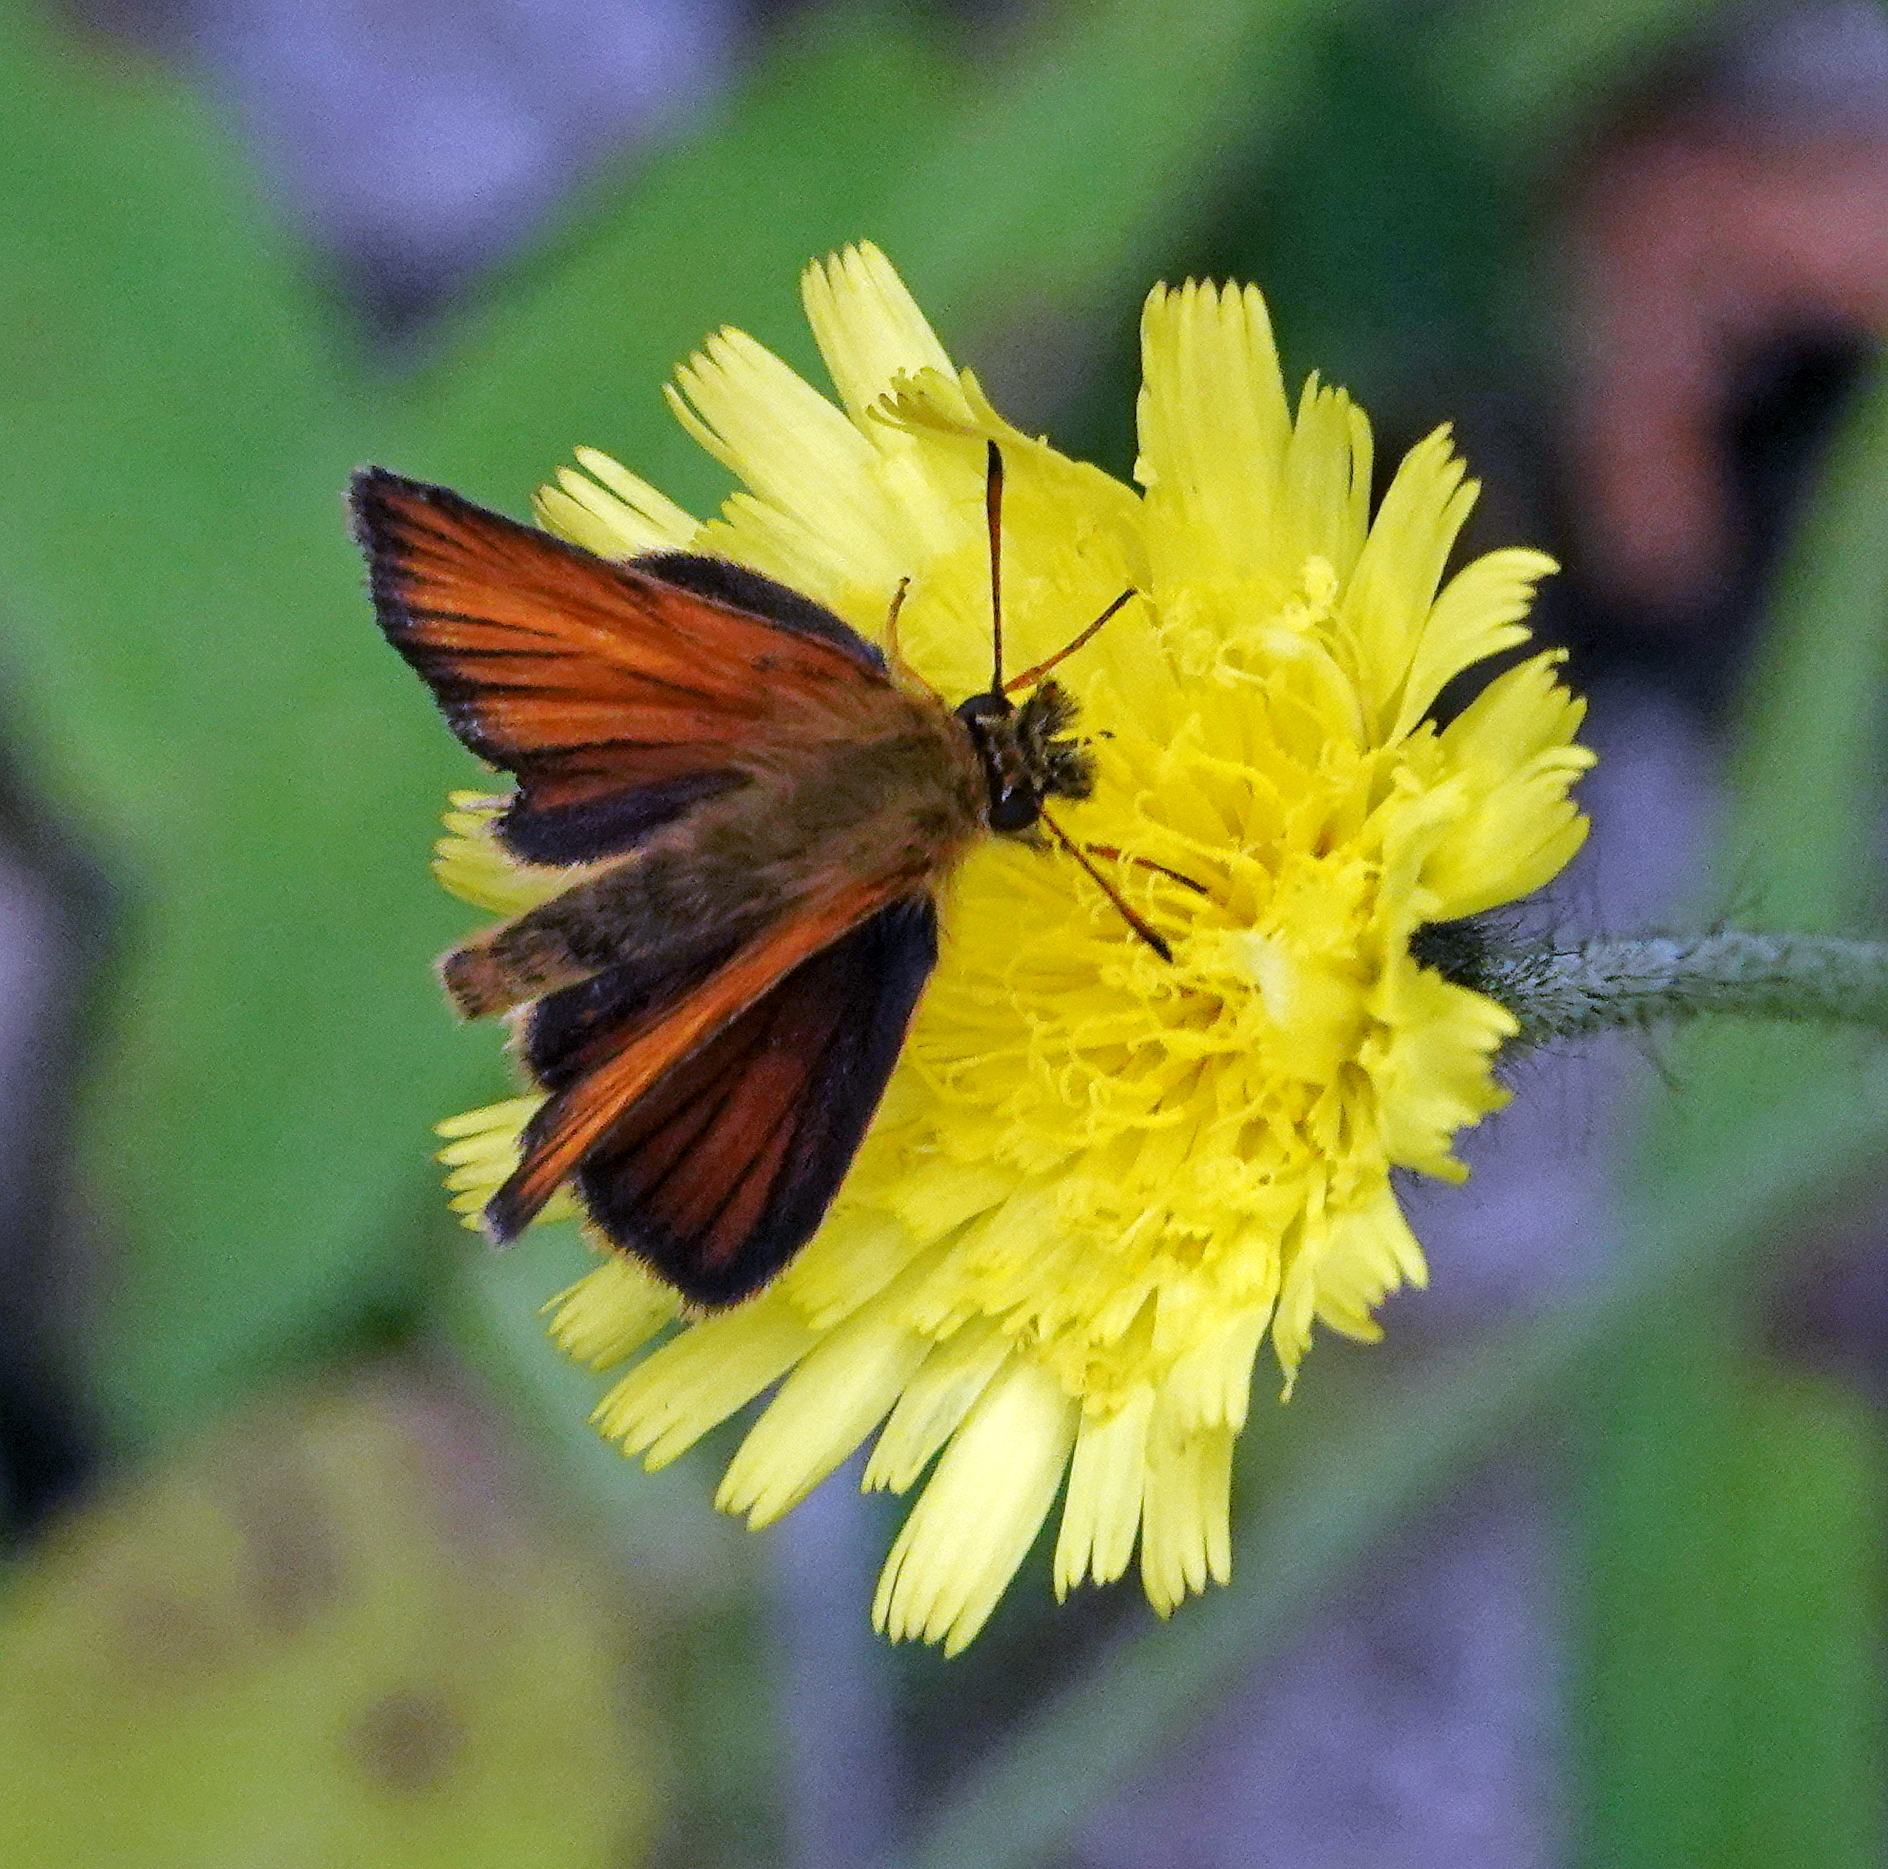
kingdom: Animalia
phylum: Arthropoda
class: Insecta
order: Lepidoptera
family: Hesperiidae
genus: Thymelicus
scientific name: Thymelicus lineola
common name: Essex skipper
